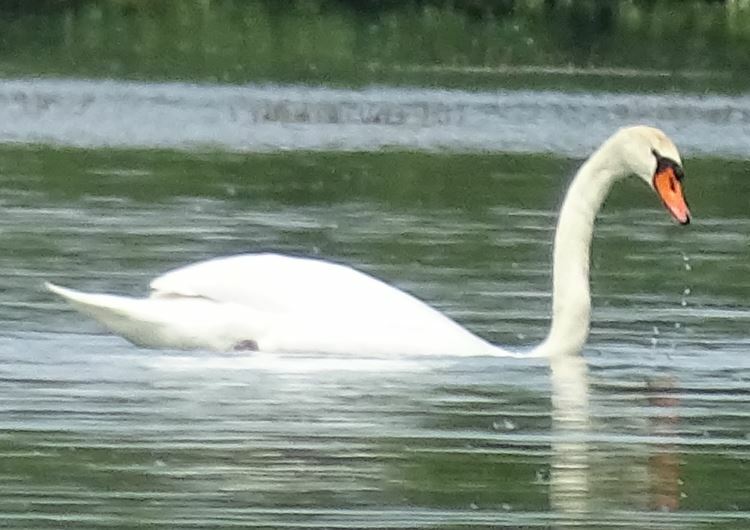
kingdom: Animalia
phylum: Chordata
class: Aves
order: Anseriformes
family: Anatidae
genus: Cygnus
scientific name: Cygnus olor
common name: Mute swan
